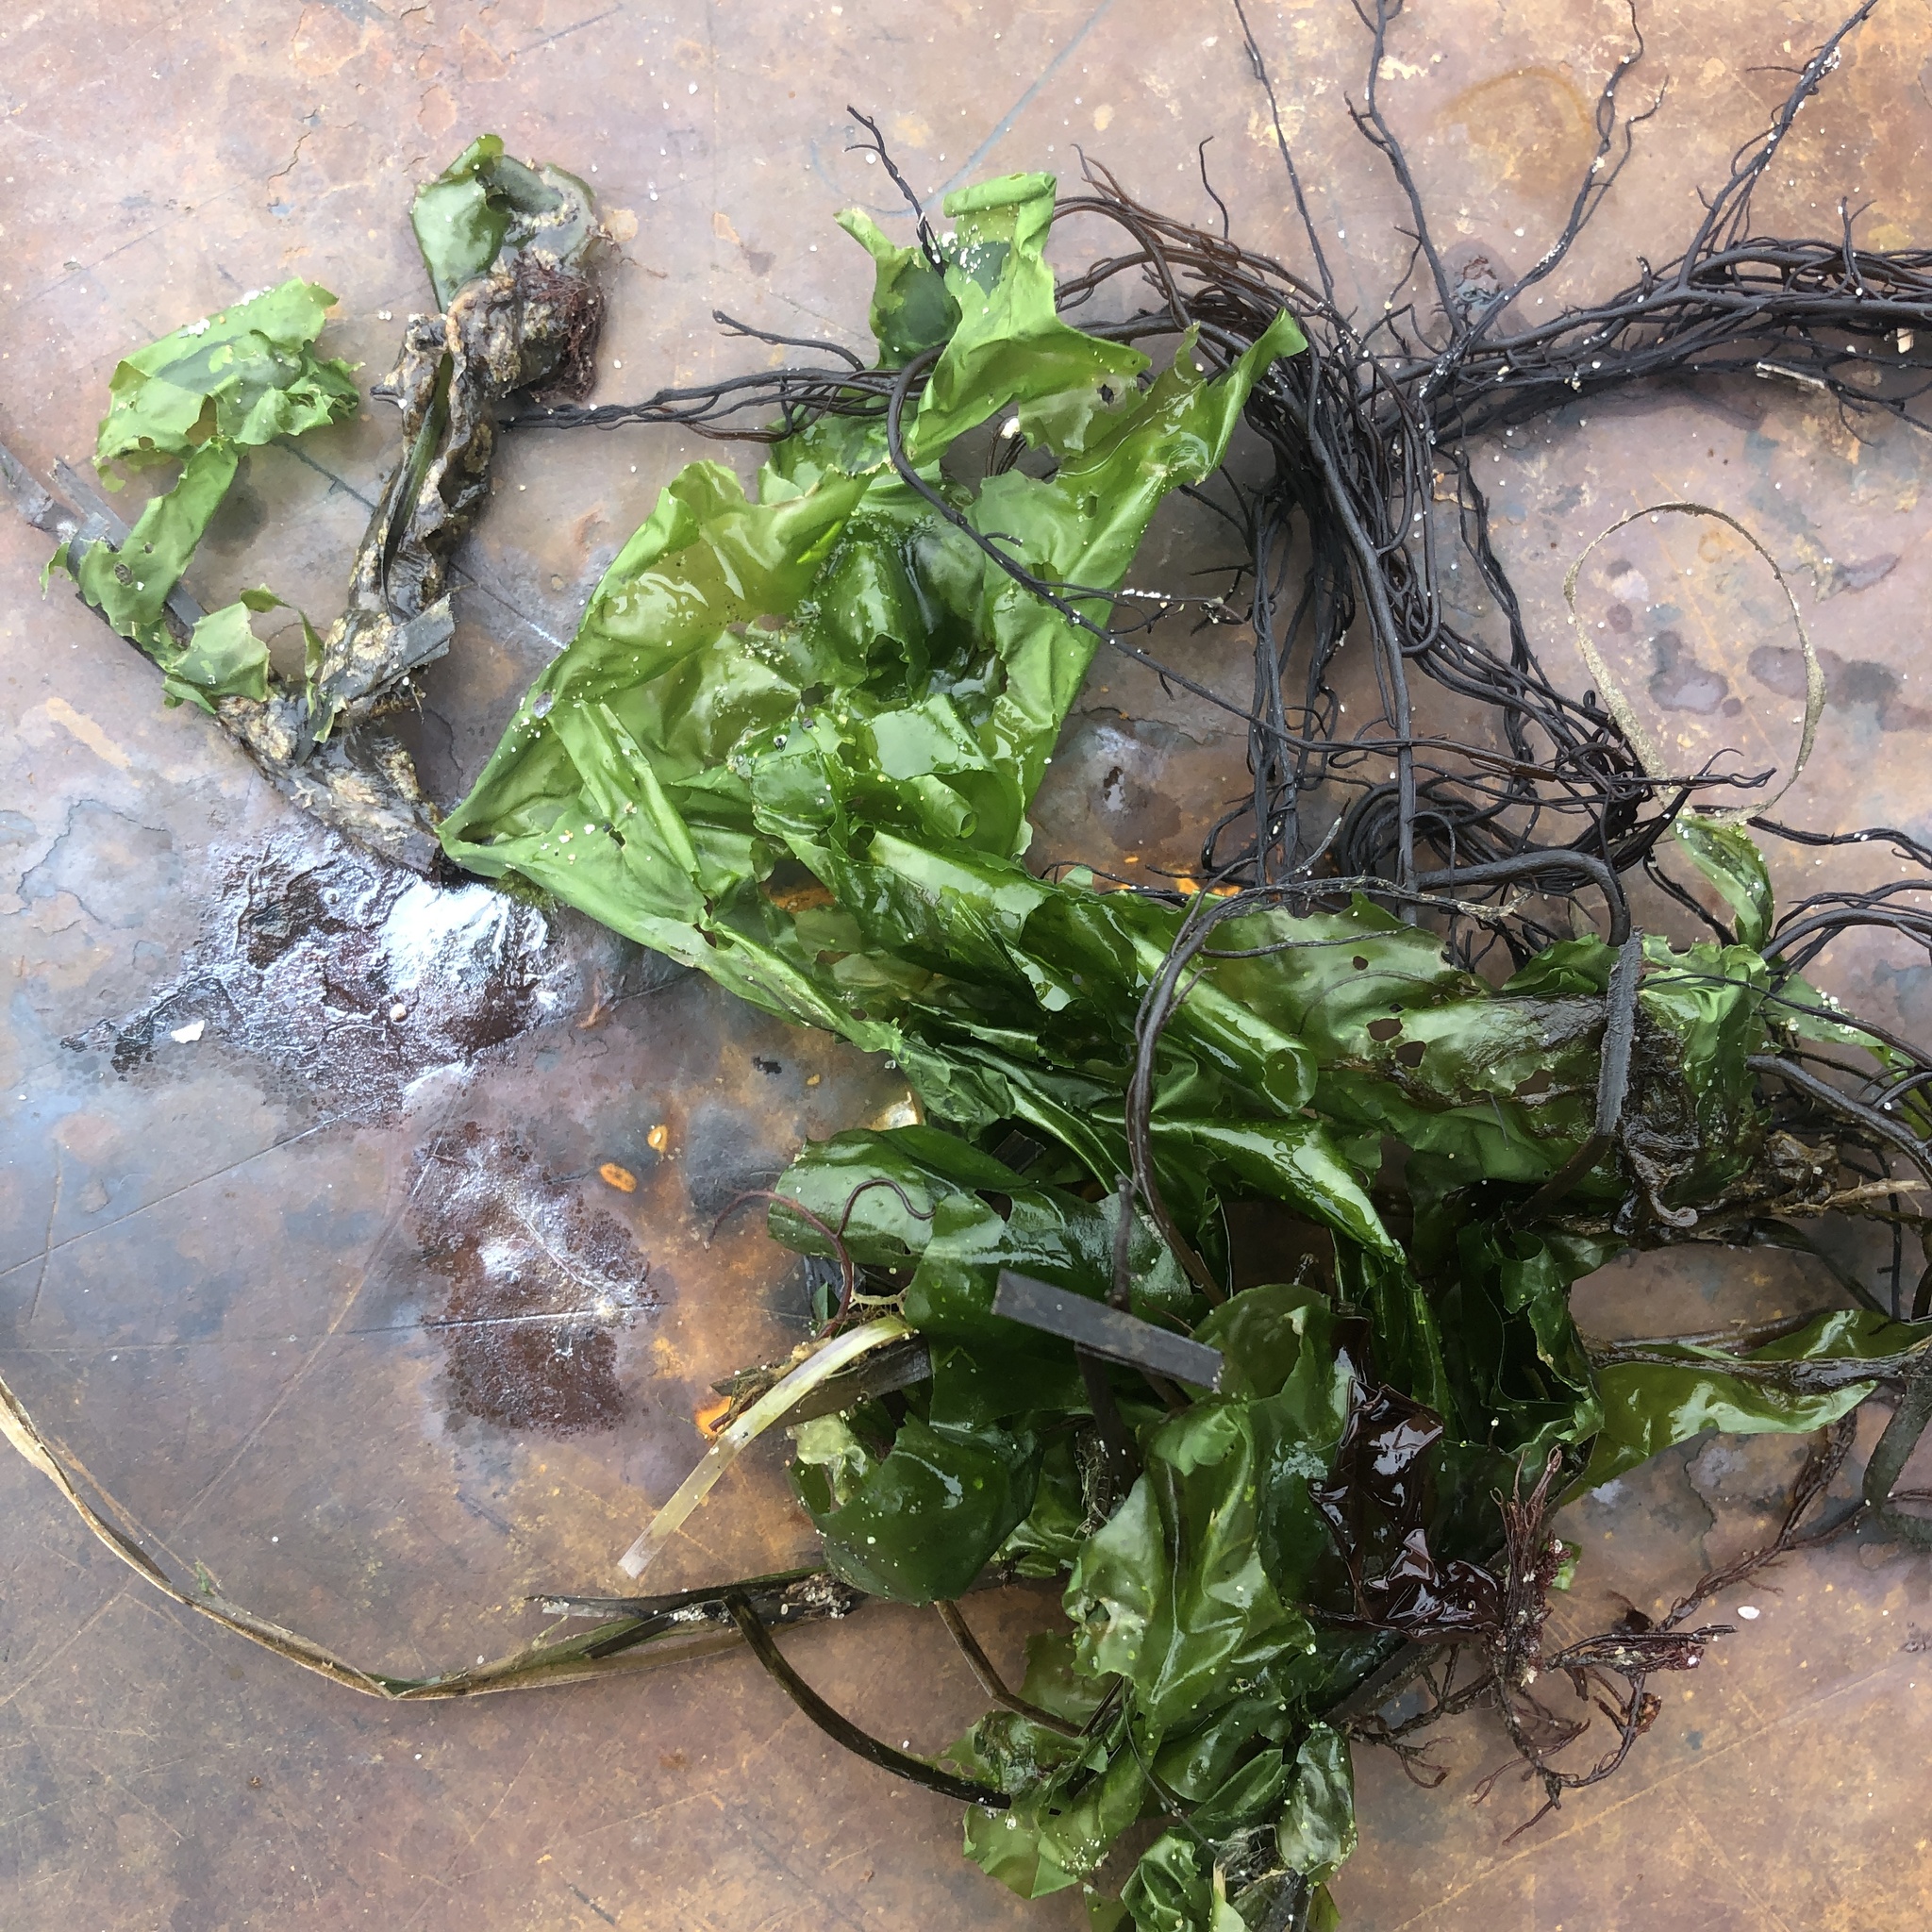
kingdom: Plantae
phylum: Chlorophyta
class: Ulvophyceae
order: Ulvales
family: Ulvaceae
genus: Ulva
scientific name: Ulva lactuca
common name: Sea lettuce
